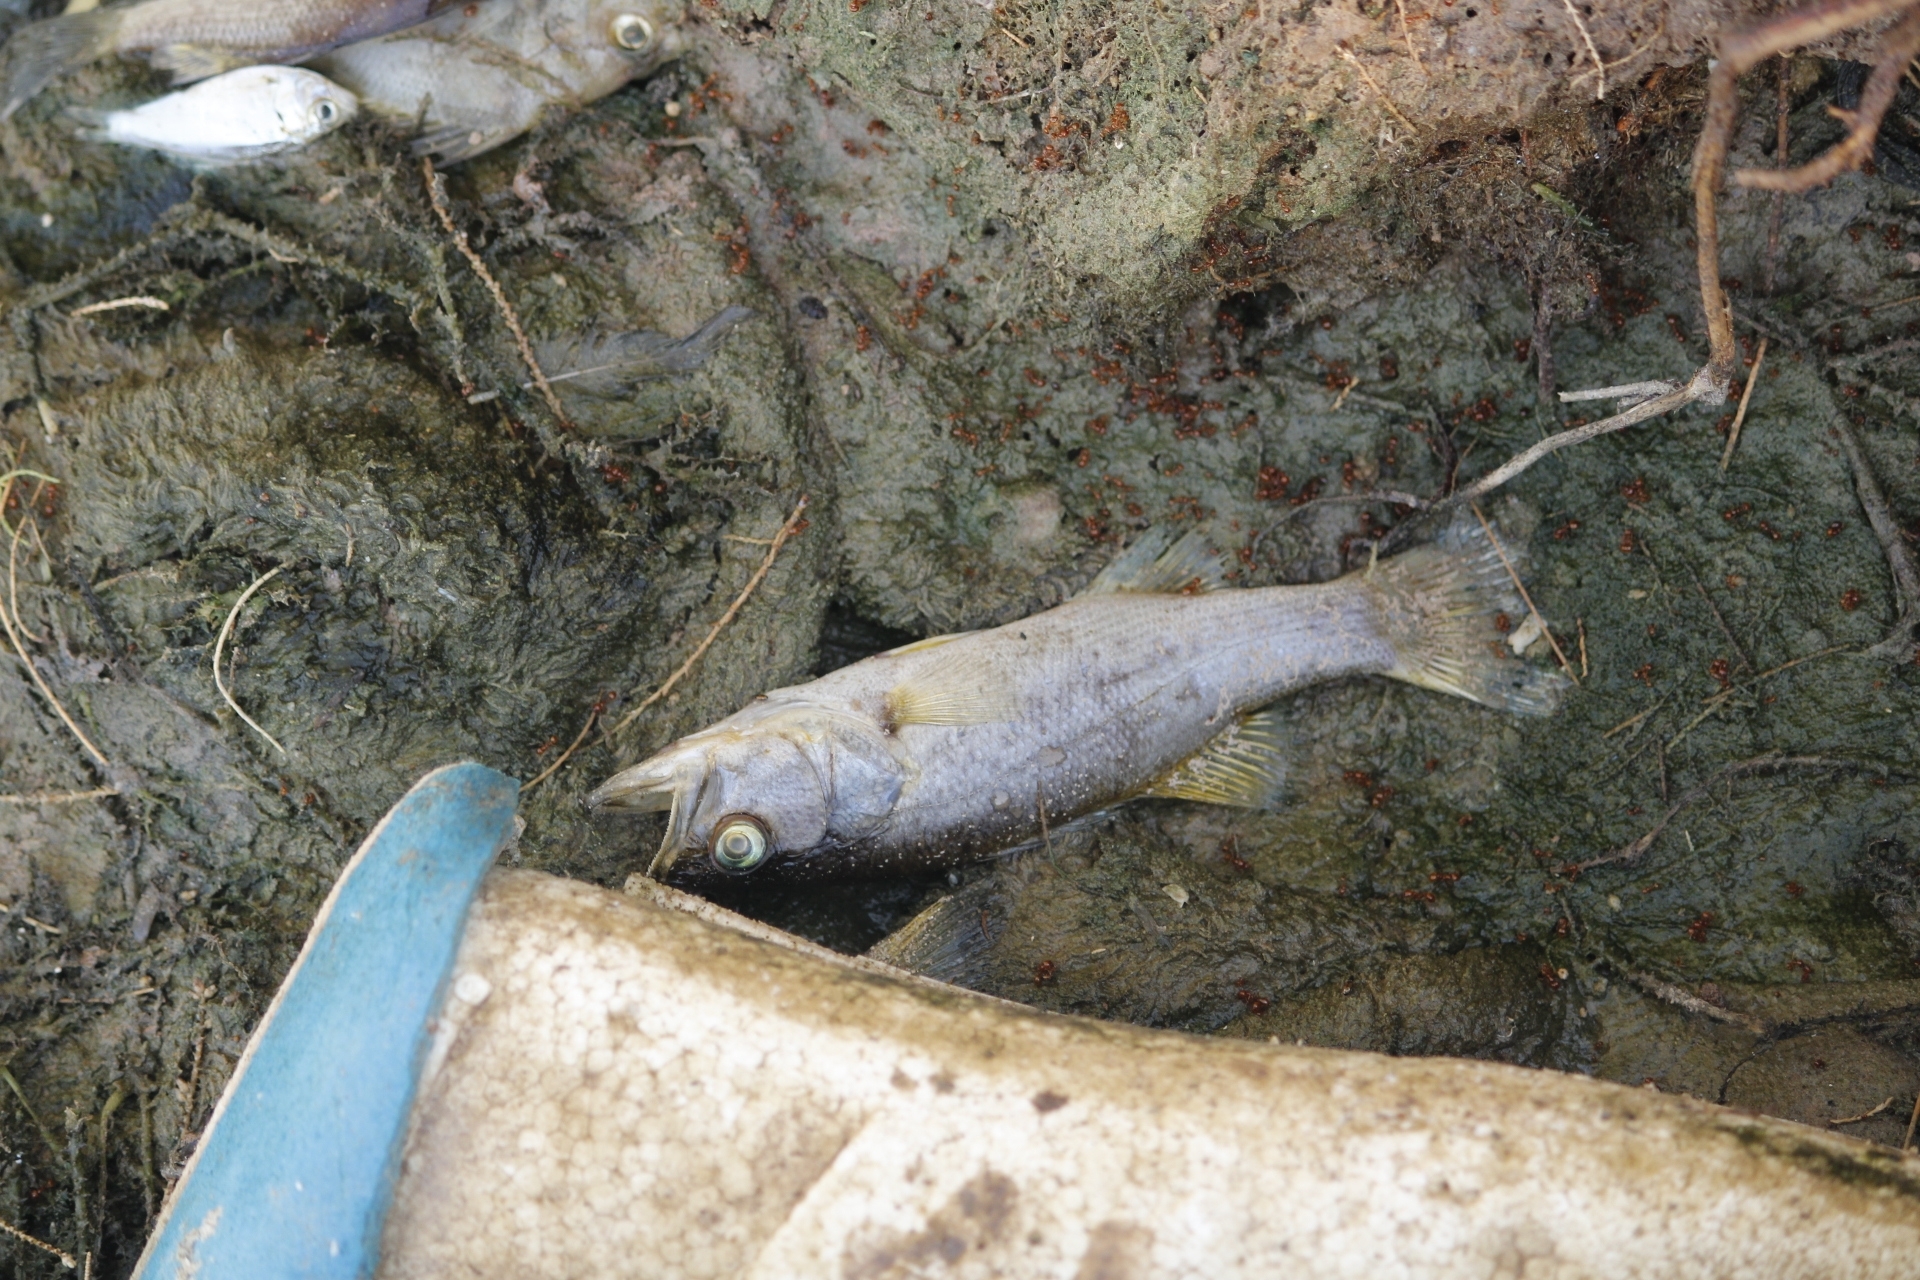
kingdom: Animalia
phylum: Chordata
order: Perciformes
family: Centrarchidae
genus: Micropterus
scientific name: Micropterus dolomieu
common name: Smallmouth bass
